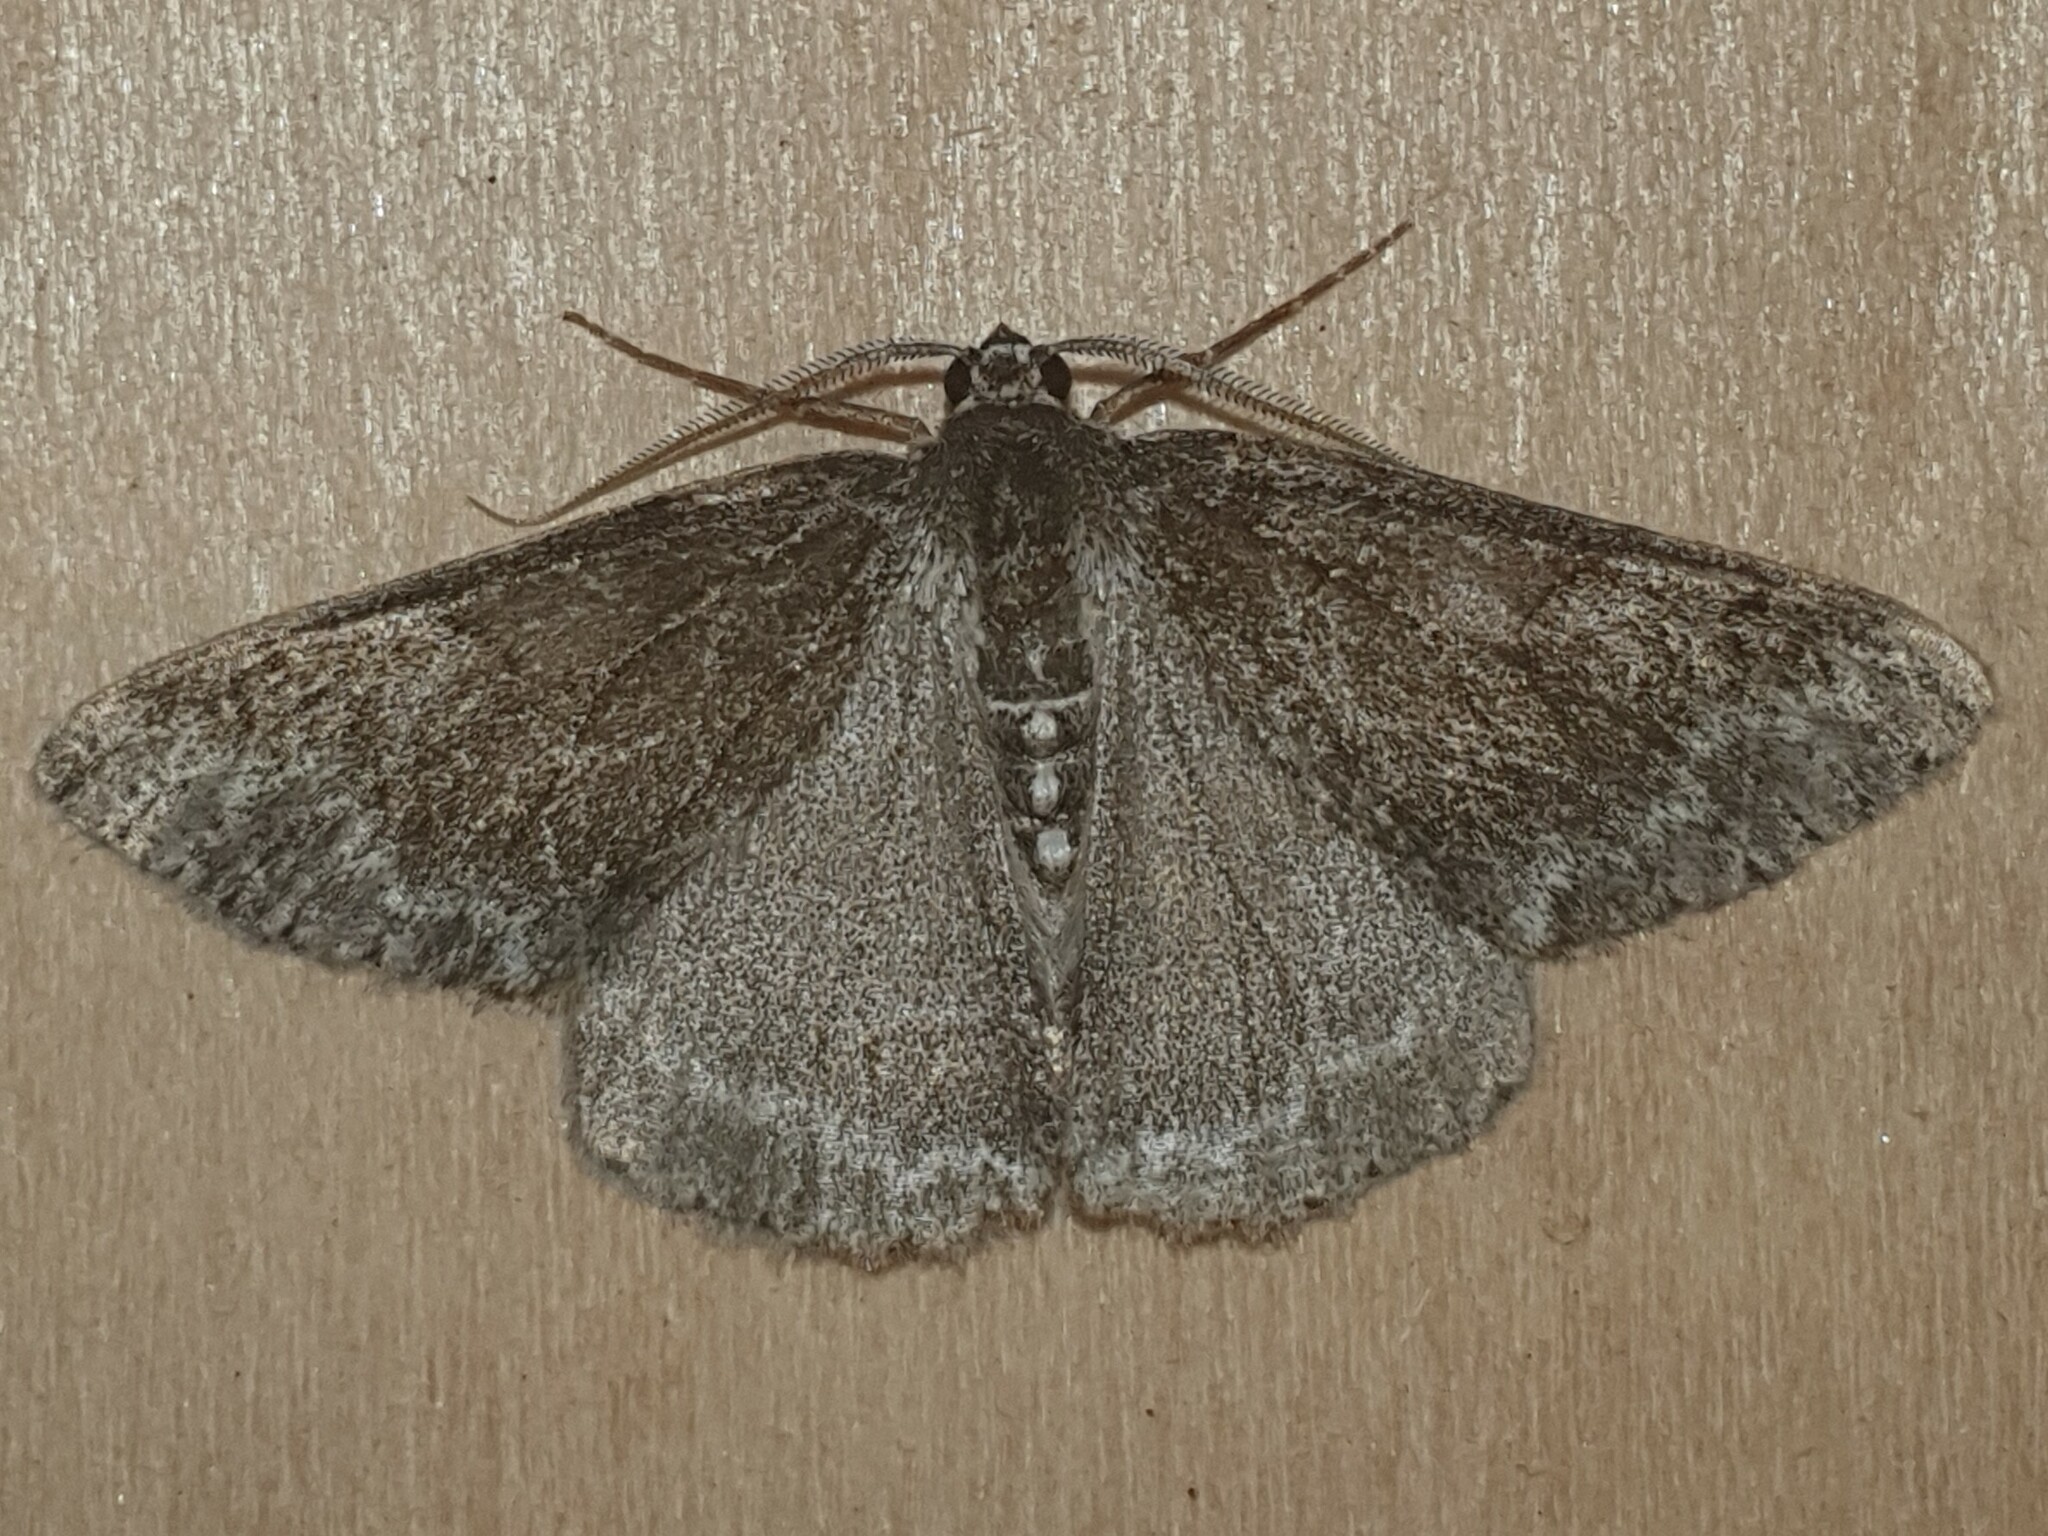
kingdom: Animalia
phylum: Arthropoda
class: Insecta
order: Lepidoptera
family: Geometridae
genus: Pseudoterpna
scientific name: Pseudoterpna coronillaria
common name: Jersey emerald
